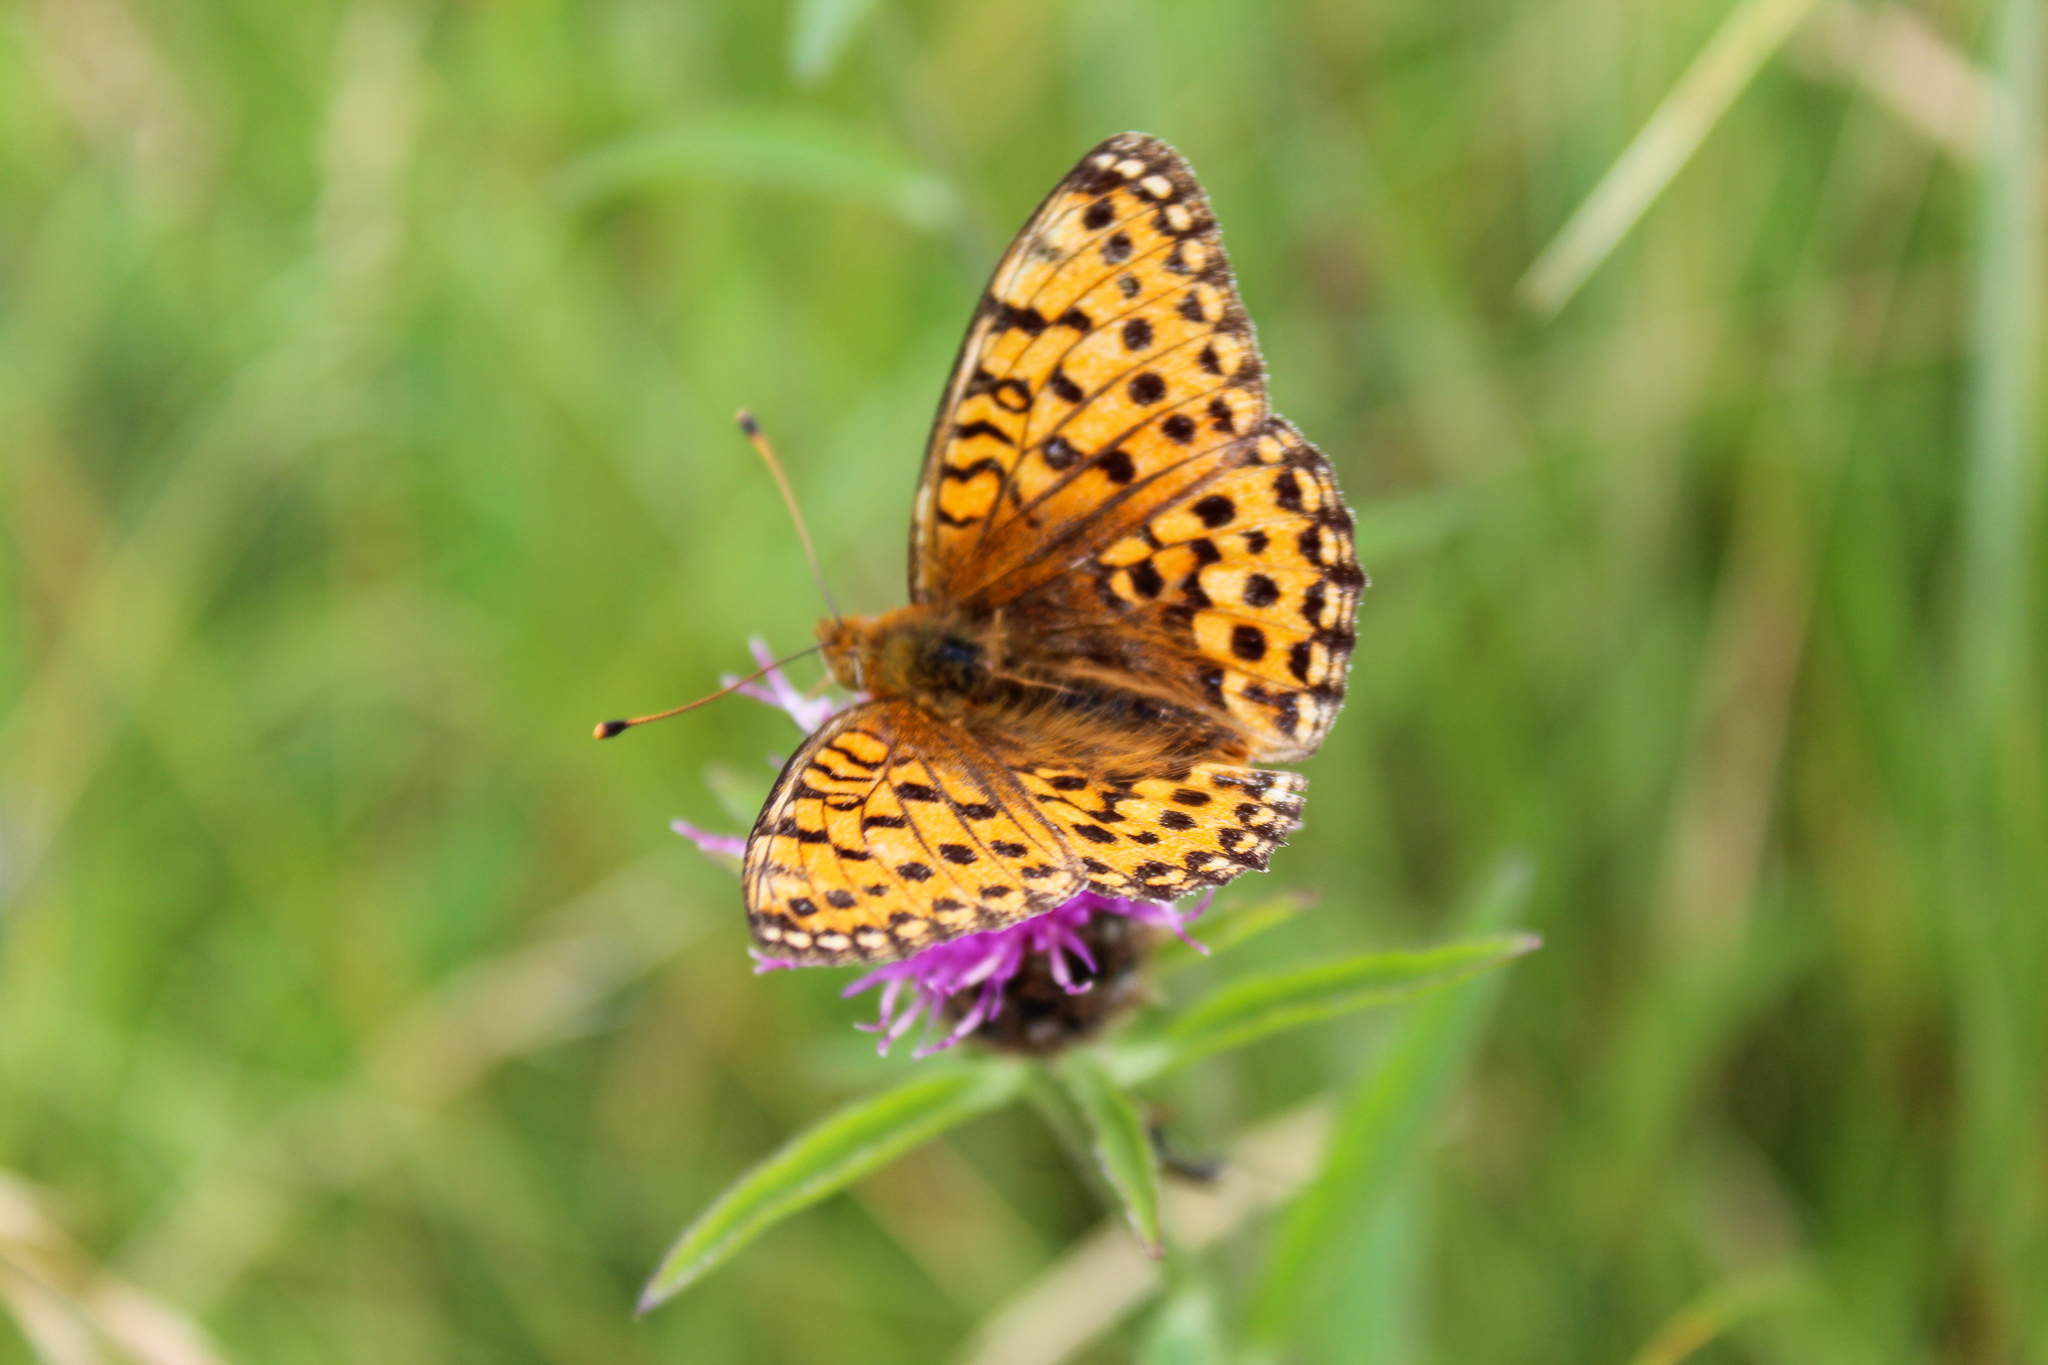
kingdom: Animalia
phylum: Arthropoda
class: Insecta
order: Lepidoptera
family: Nymphalidae
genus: Speyeria
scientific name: Speyeria aglaja
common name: Dark green fritillary
